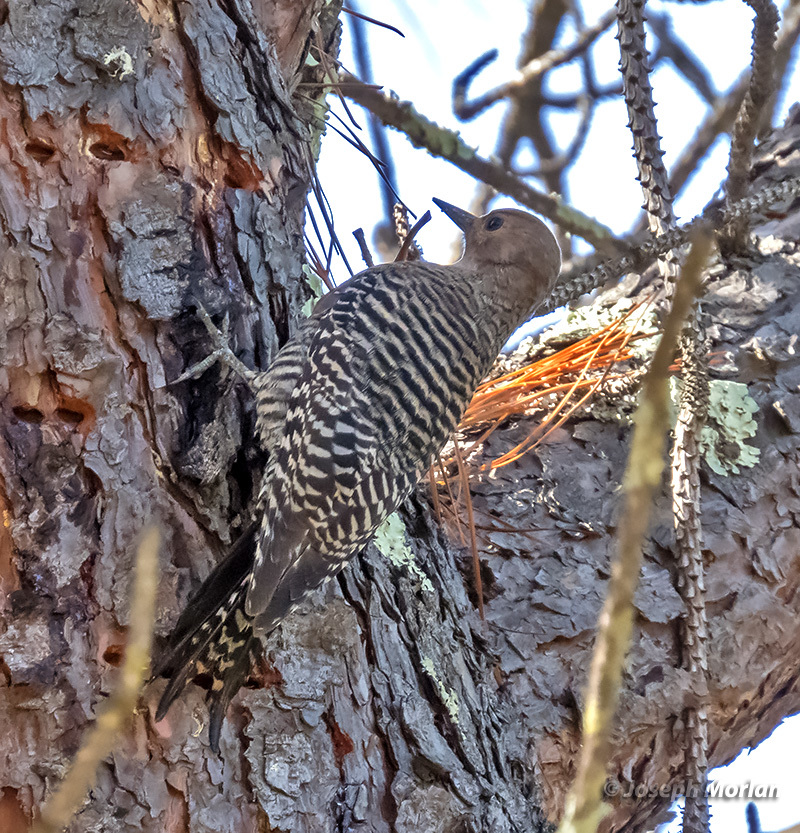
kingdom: Animalia
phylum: Chordata
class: Aves
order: Piciformes
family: Picidae
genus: Sphyrapicus
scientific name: Sphyrapicus thyroideus
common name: Williamson's sapsucker
